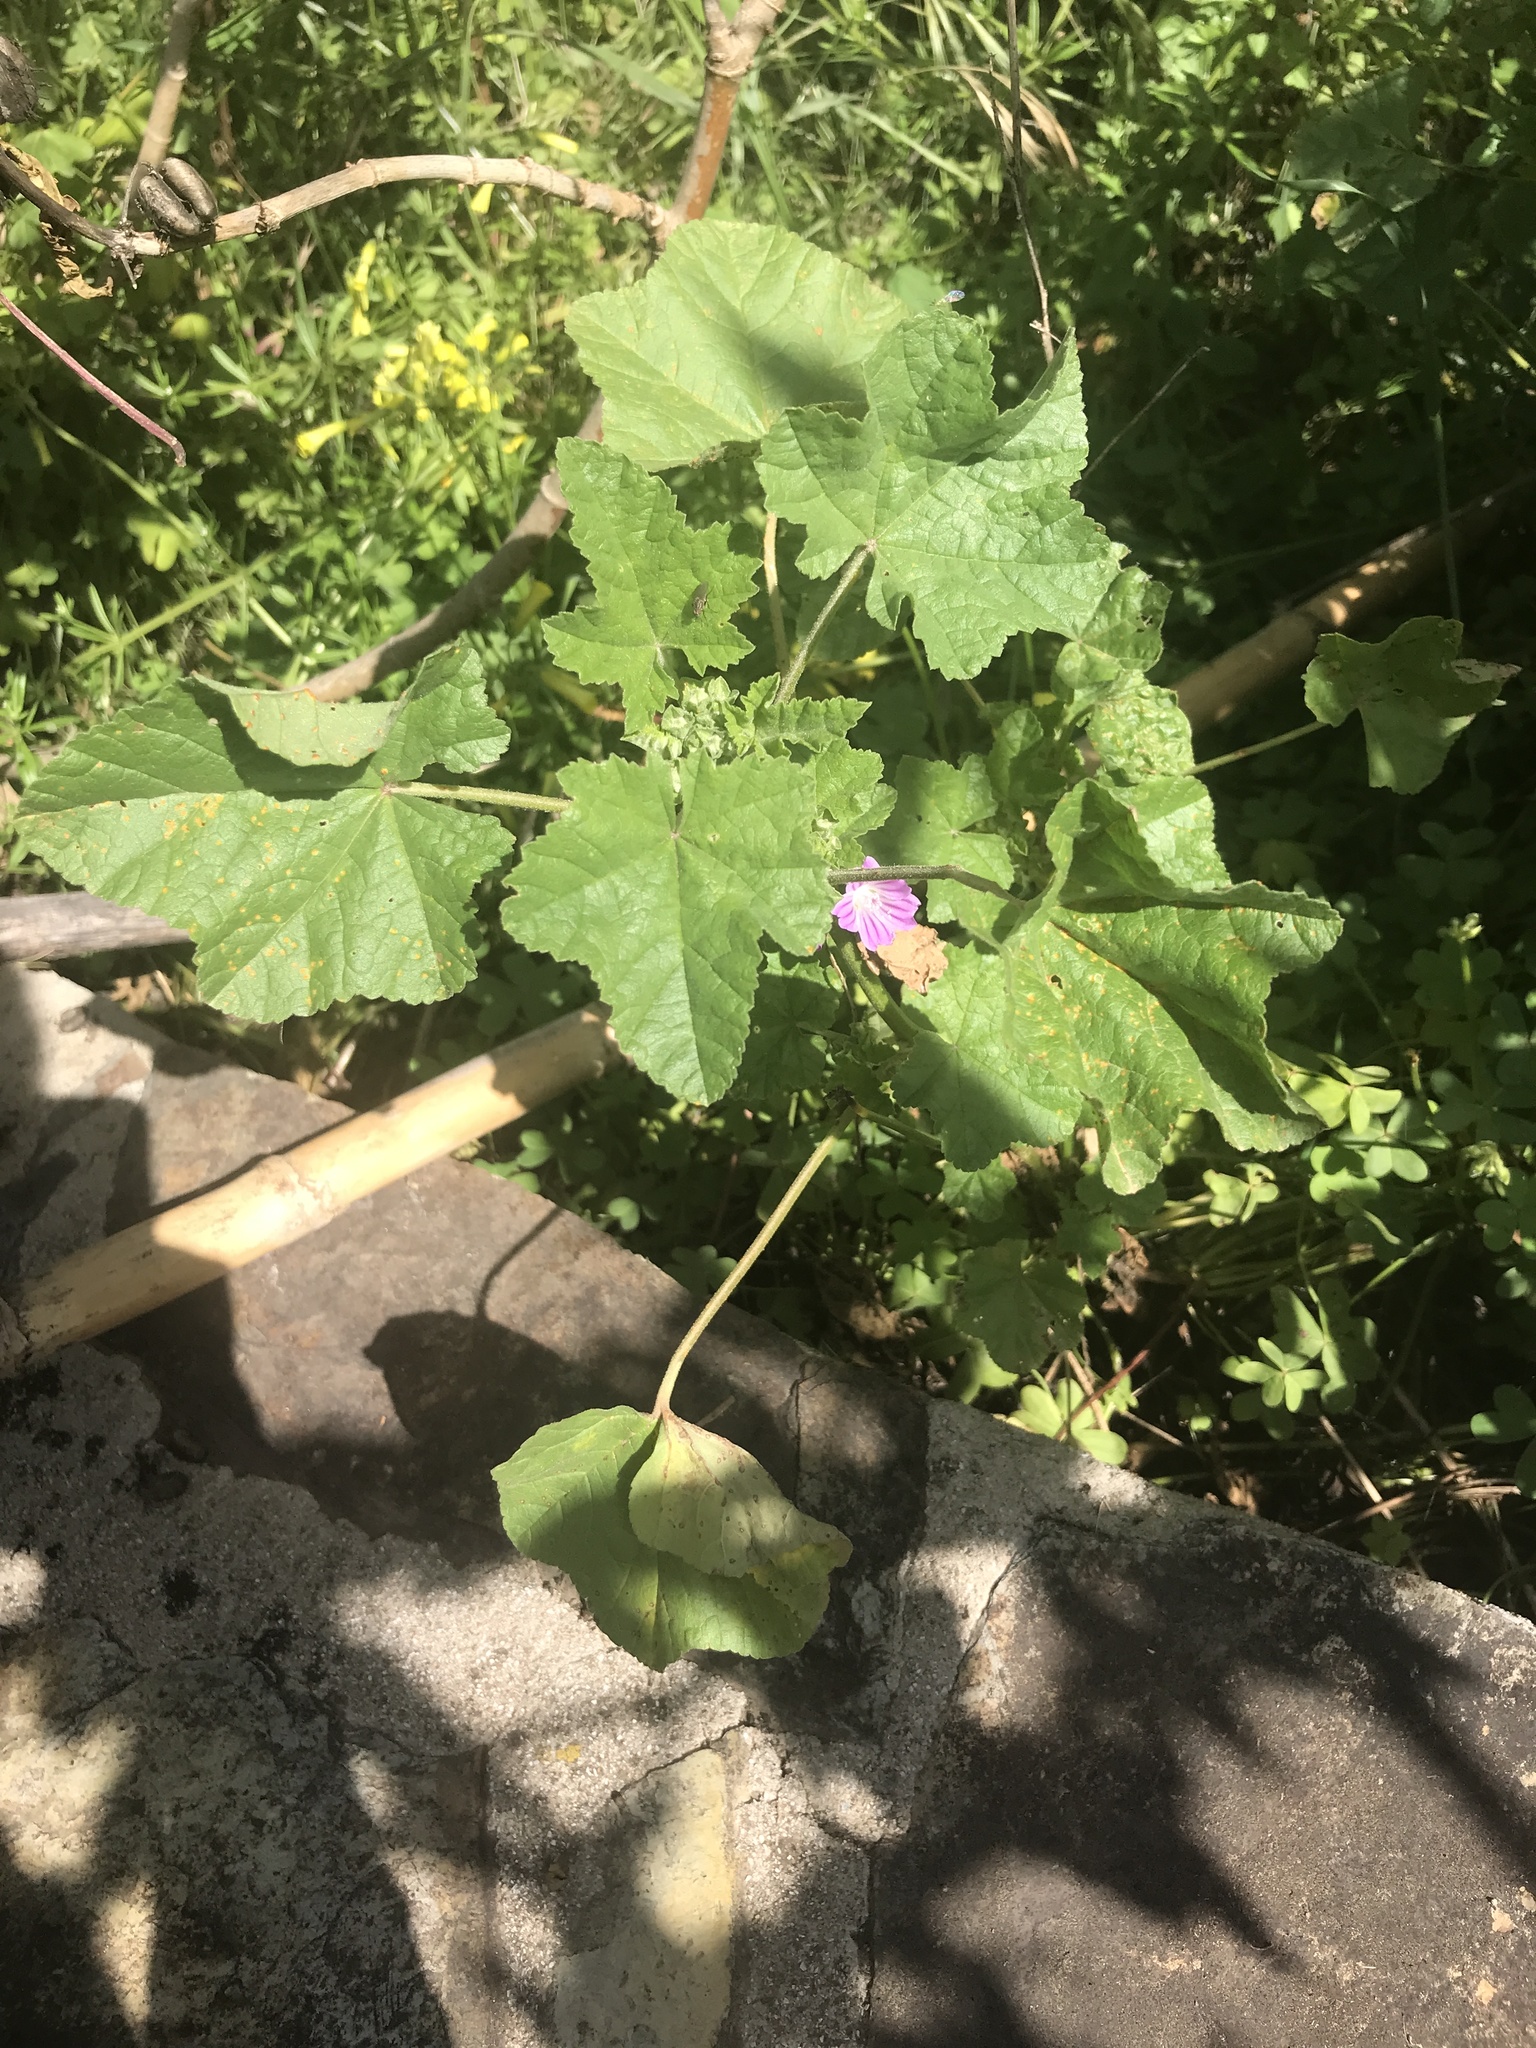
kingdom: Plantae
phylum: Tracheophyta
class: Magnoliopsida
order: Malvales
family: Malvaceae
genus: Malva
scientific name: Malva multiflora
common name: Cheeseweed
